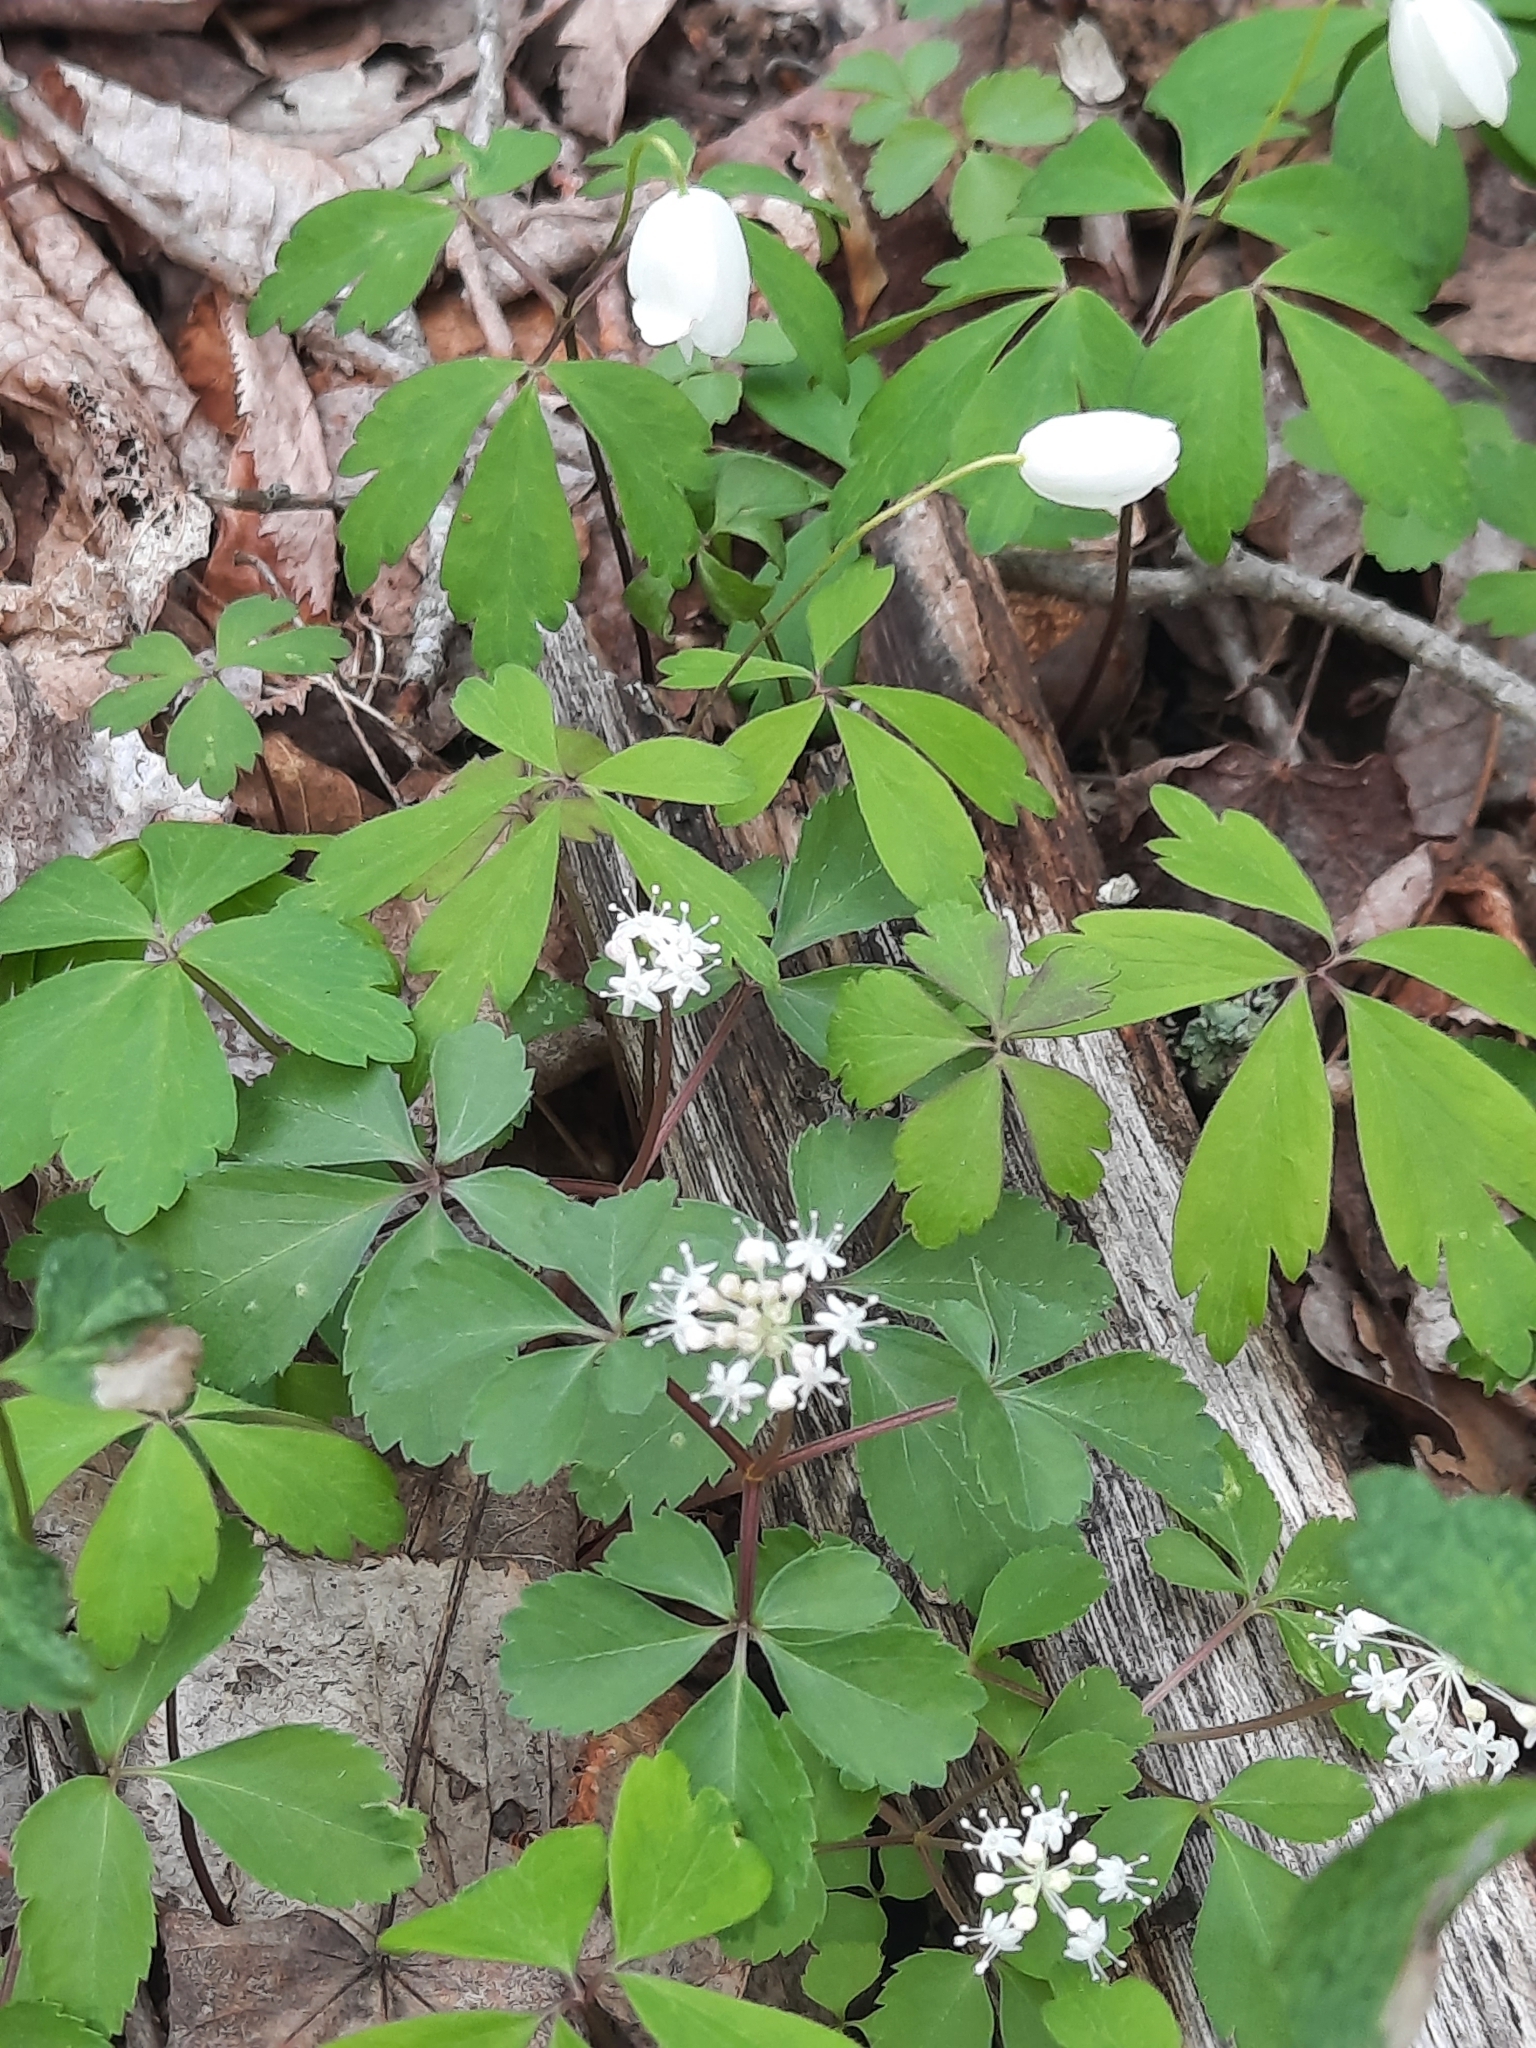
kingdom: Plantae
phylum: Tracheophyta
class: Magnoliopsida
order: Apiales
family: Araliaceae
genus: Panax
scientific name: Panax trifolius
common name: Dwarf ginseng
